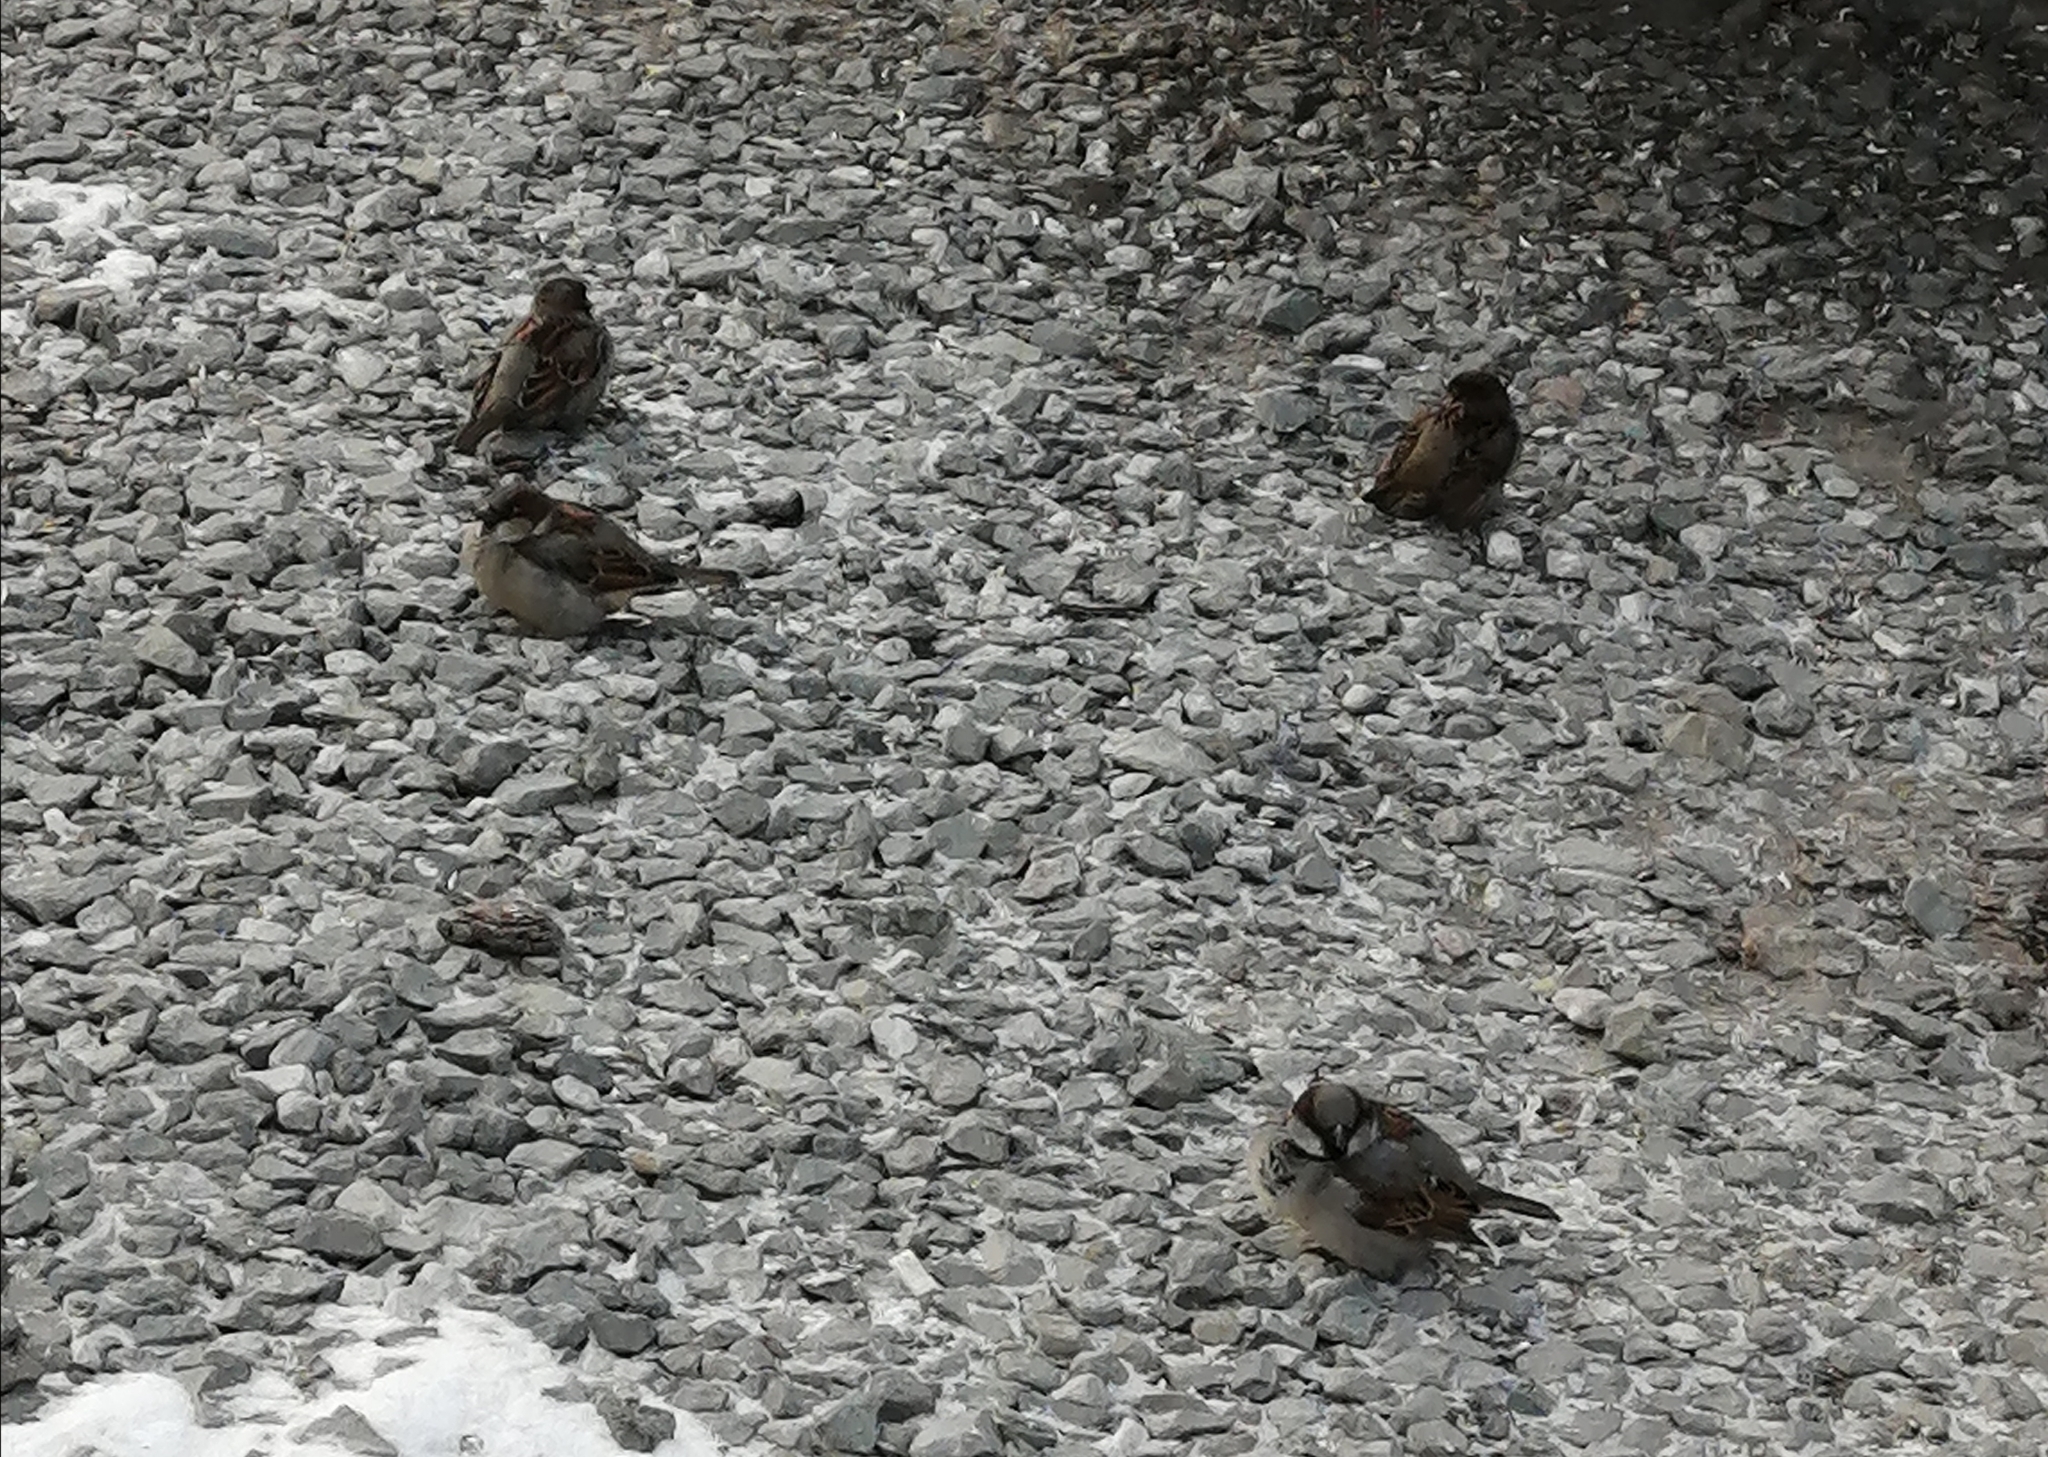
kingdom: Animalia
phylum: Chordata
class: Aves
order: Passeriformes
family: Passeridae
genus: Passer
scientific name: Passer domesticus
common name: House sparrow
